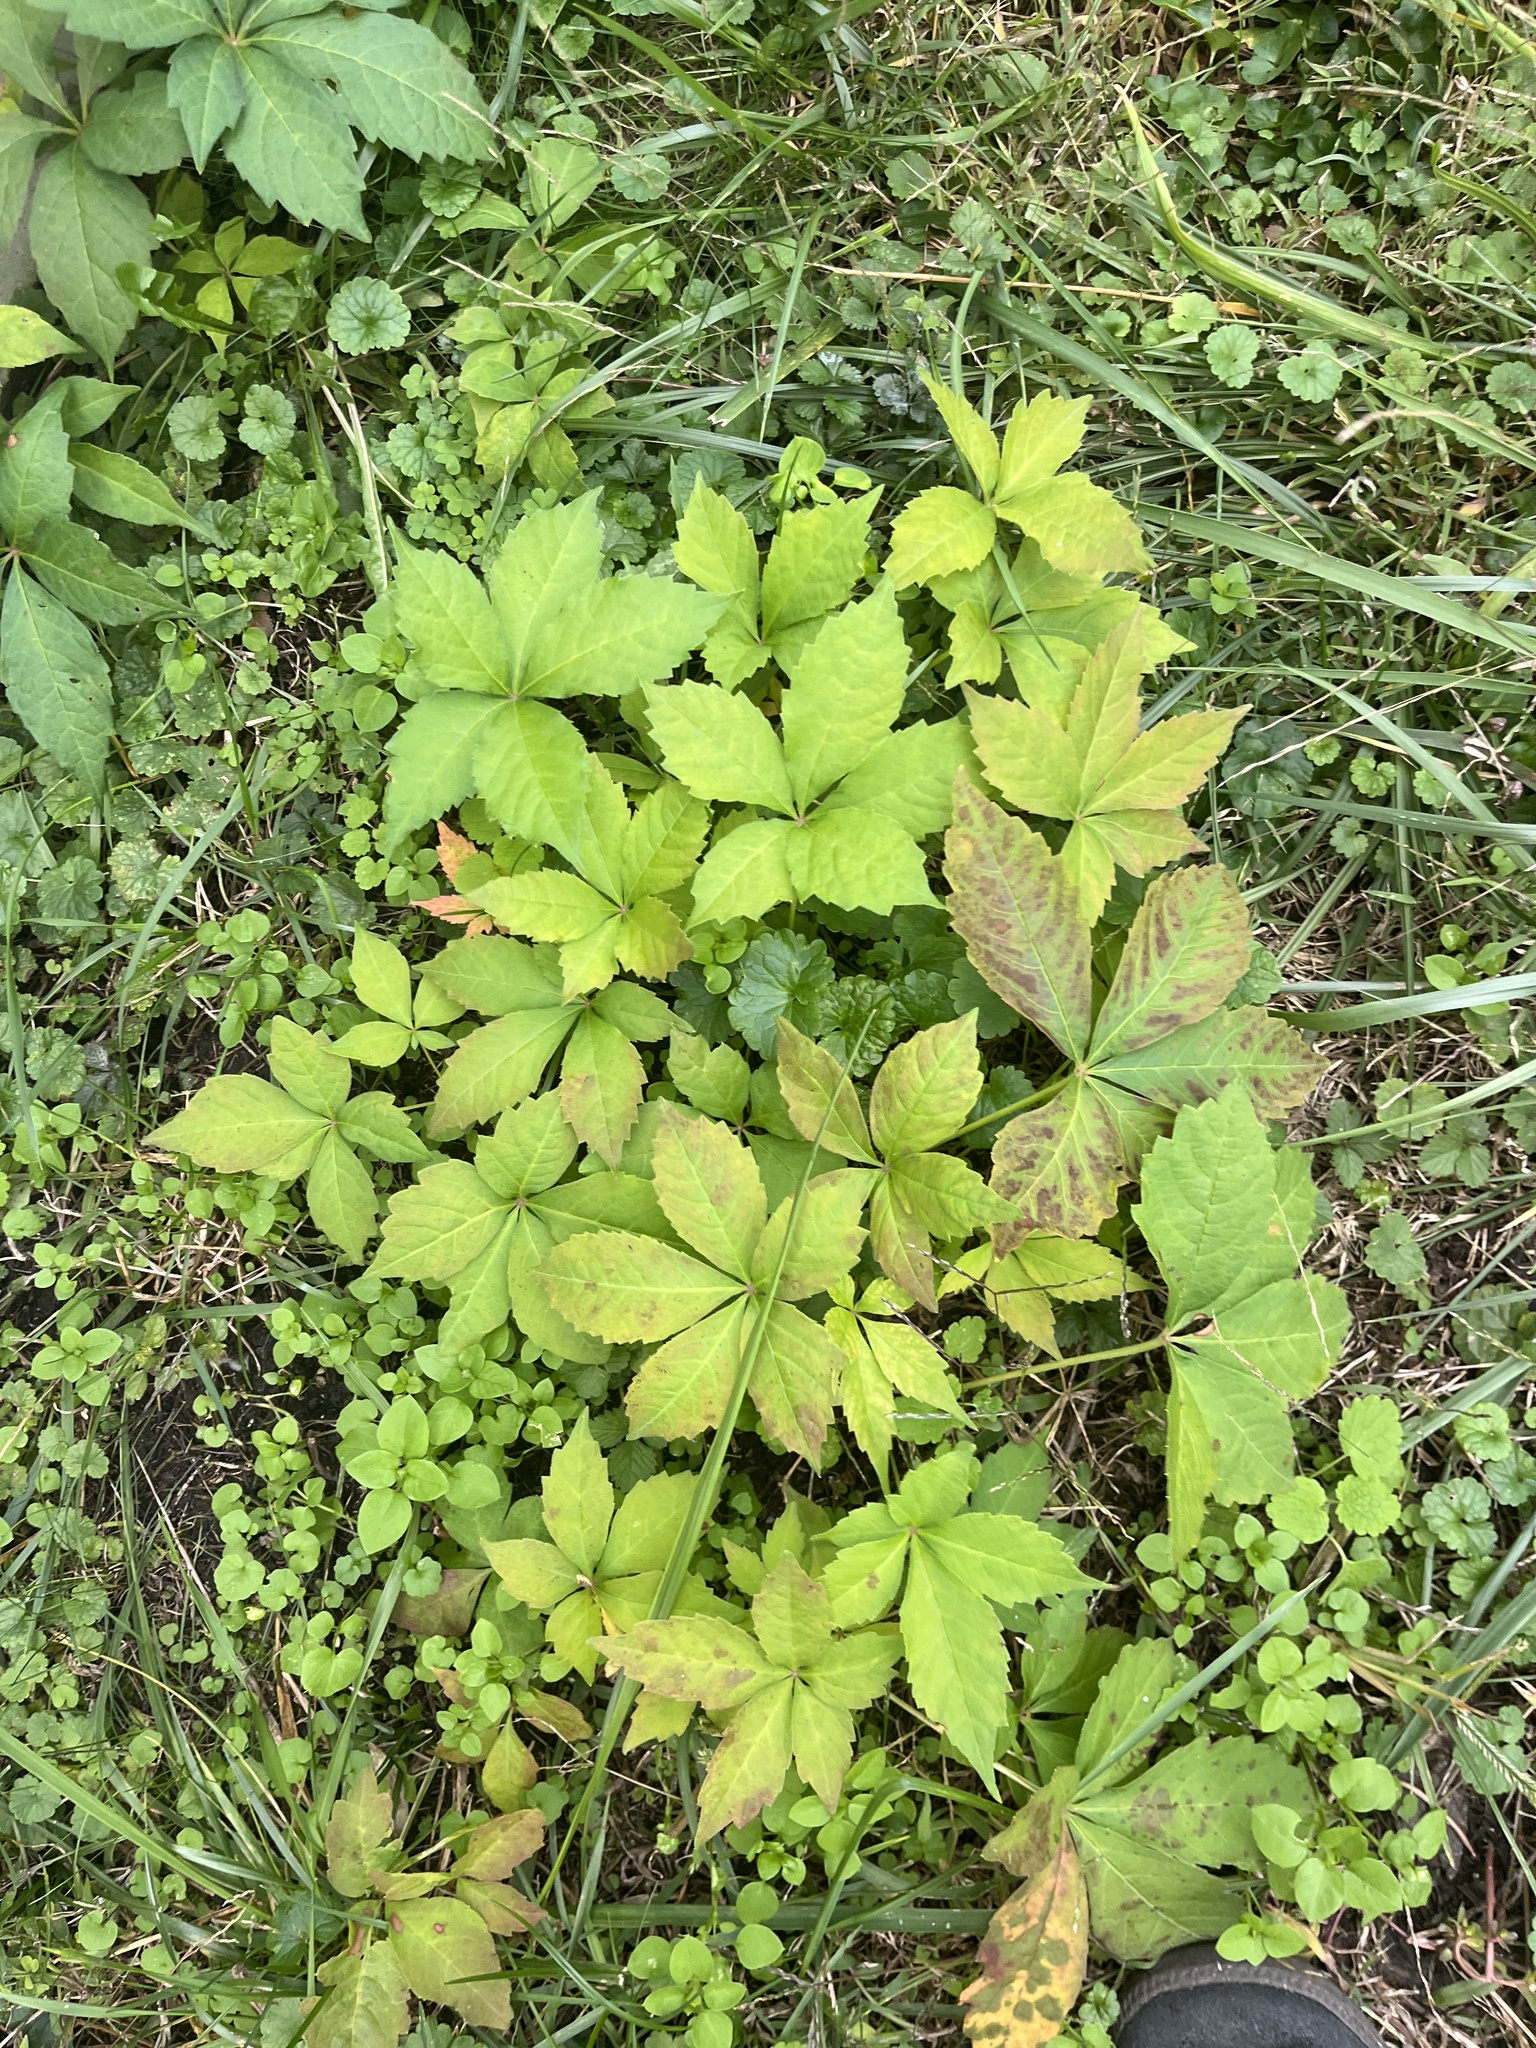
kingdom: Plantae
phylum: Tracheophyta
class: Magnoliopsida
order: Vitales
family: Vitaceae
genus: Parthenocissus
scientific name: Parthenocissus quinquefolia
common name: Virginia-creeper
